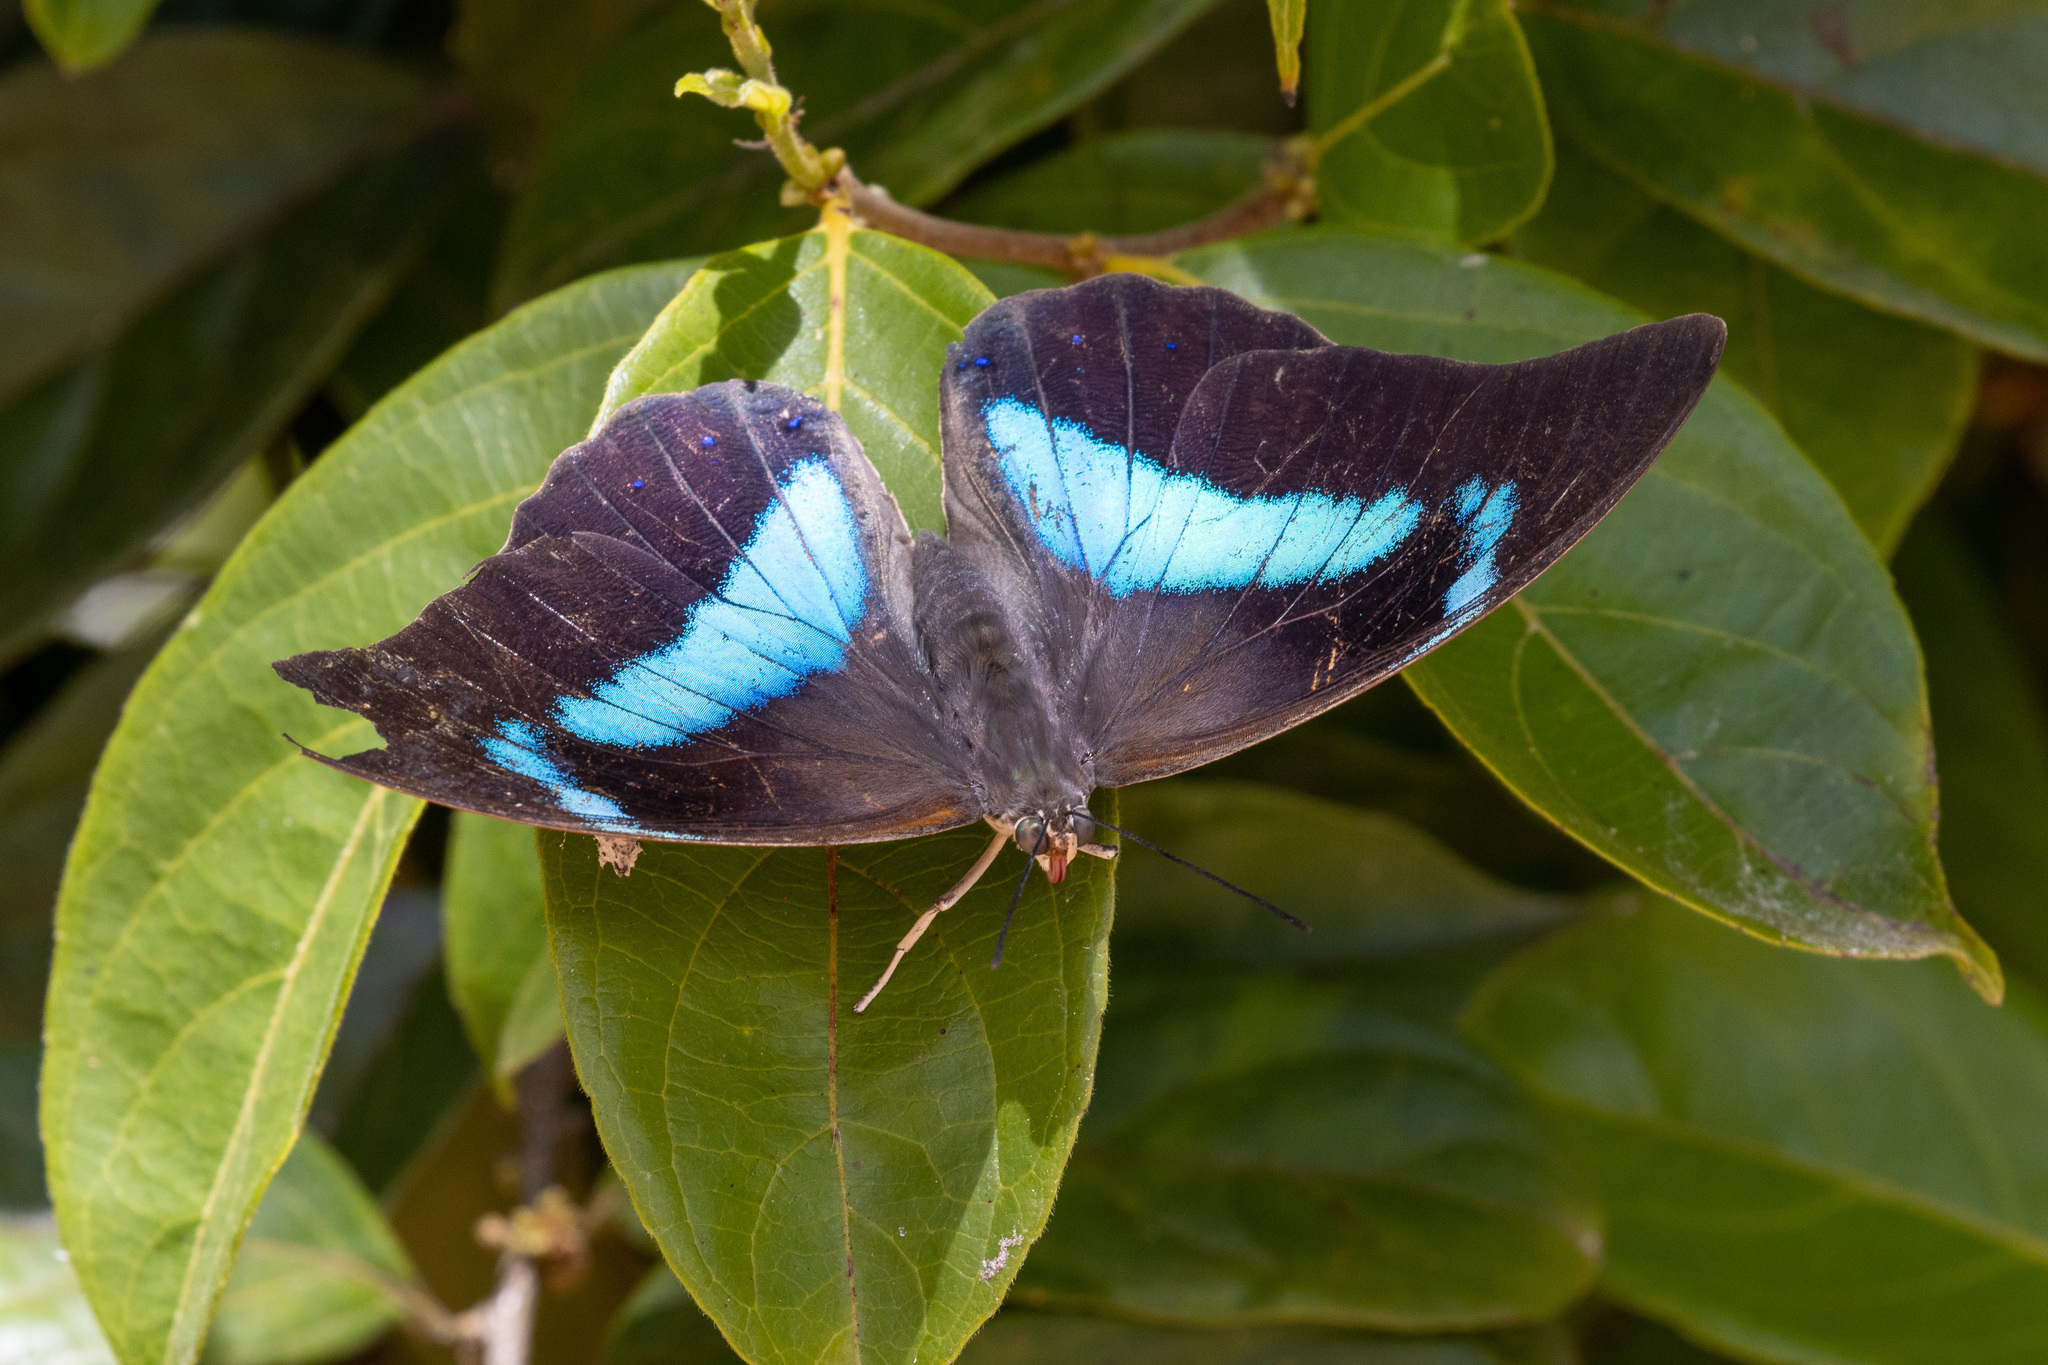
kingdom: Animalia
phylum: Arthropoda
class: Insecta
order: Lepidoptera
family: Nymphalidae
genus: Prepona
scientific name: Prepona demophon
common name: One-spotted prepona
